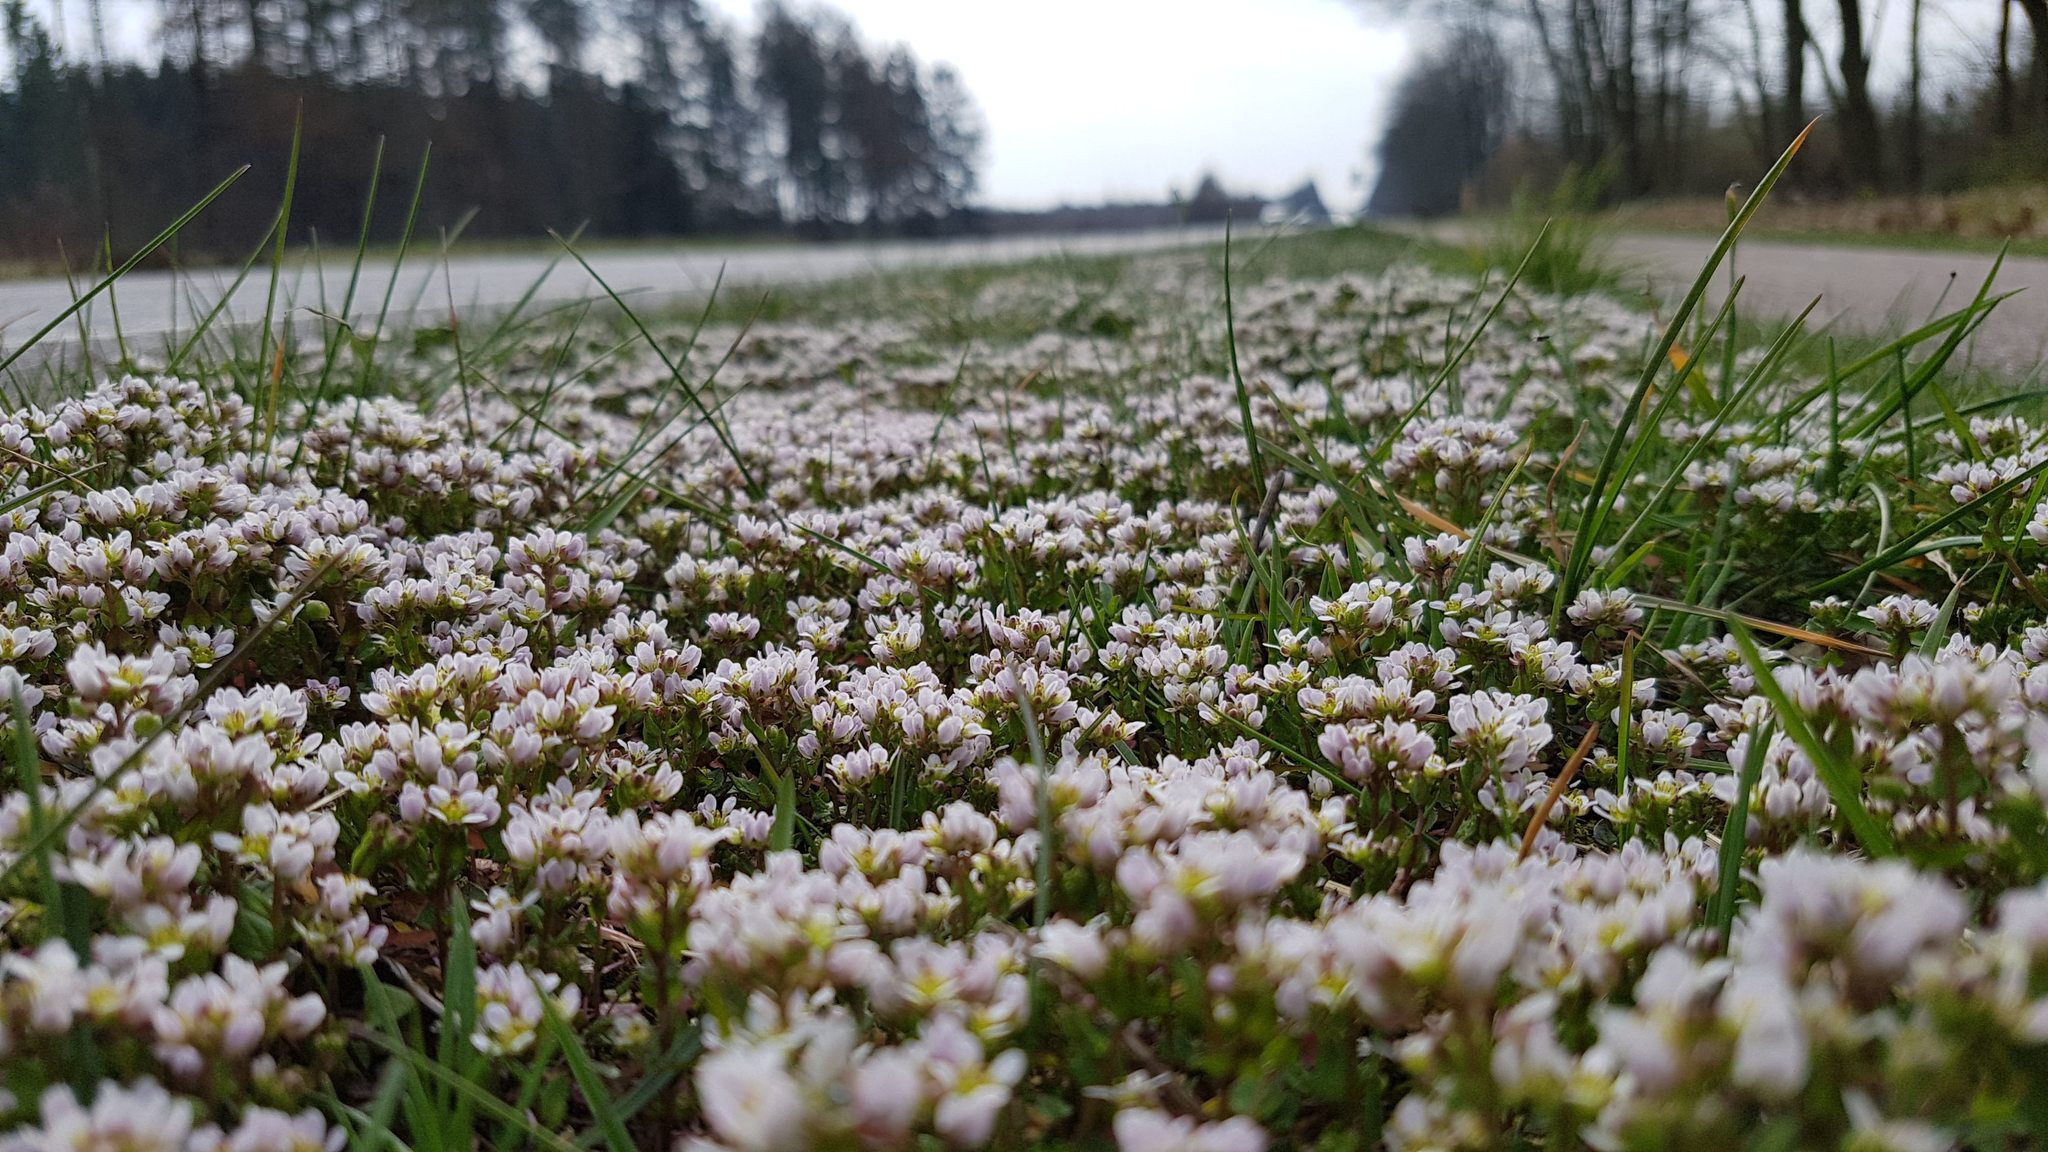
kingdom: Plantae
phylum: Tracheophyta
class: Magnoliopsida
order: Brassicales
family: Brassicaceae
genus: Cochlearia
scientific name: Cochlearia danica
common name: Early scurvygrass
